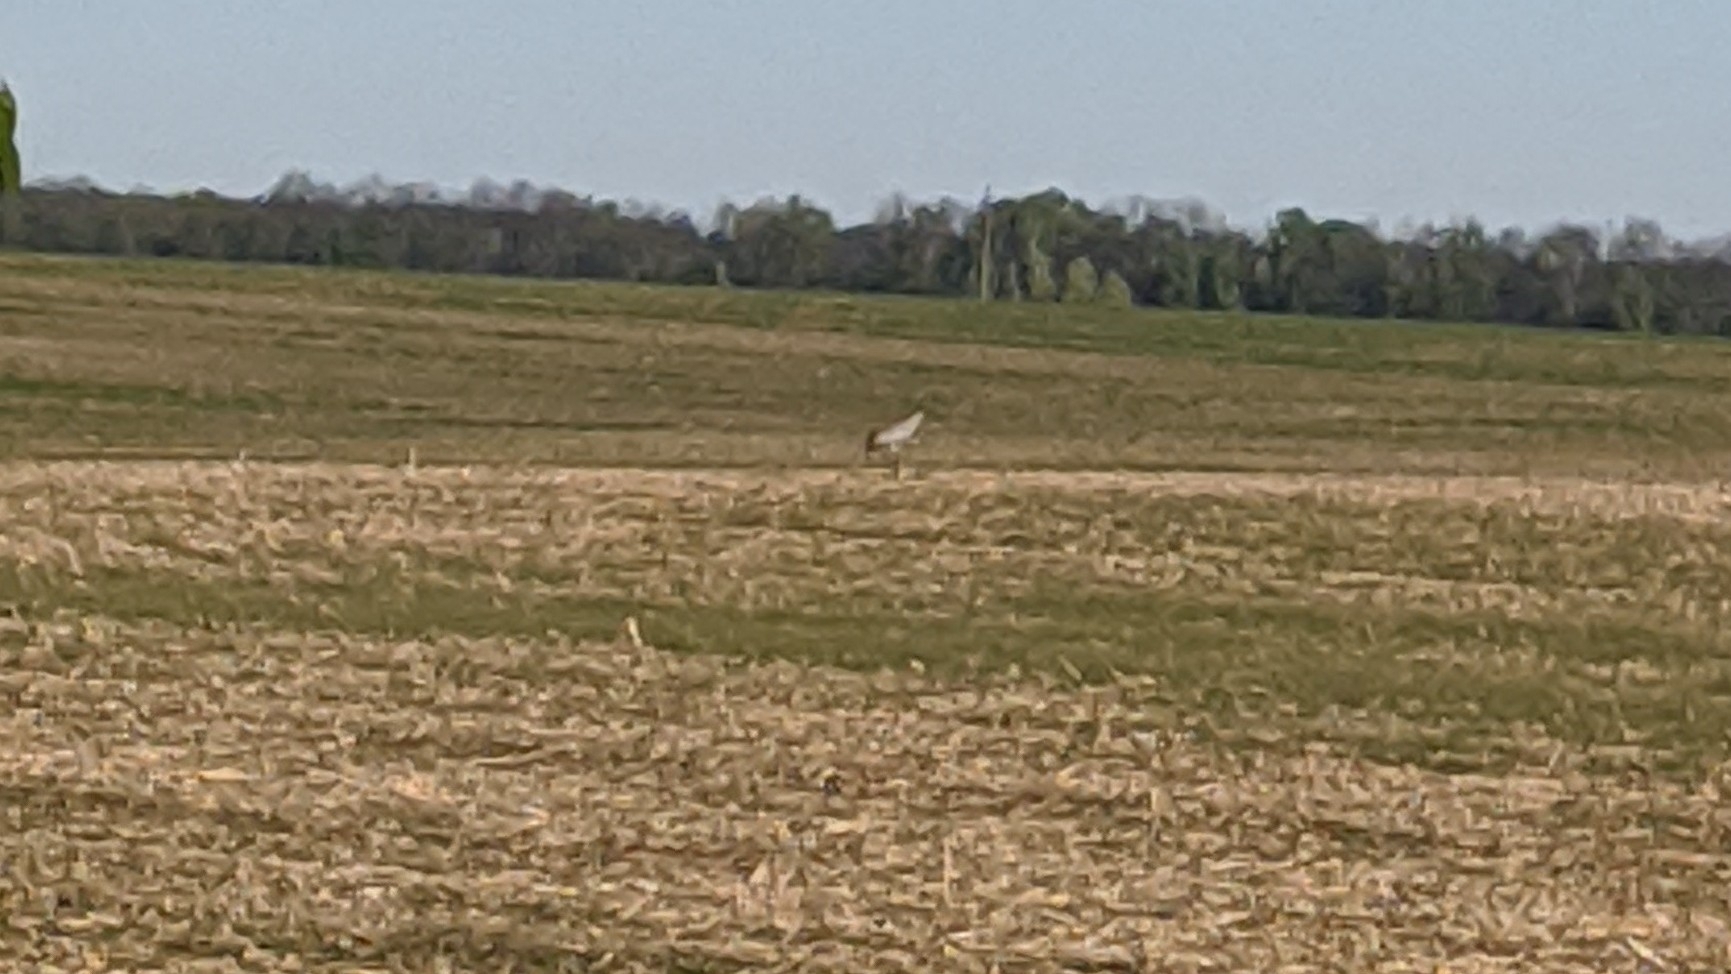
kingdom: Animalia
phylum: Chordata
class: Aves
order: Gruiformes
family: Gruidae
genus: Grus
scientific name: Grus grus
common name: Common crane
